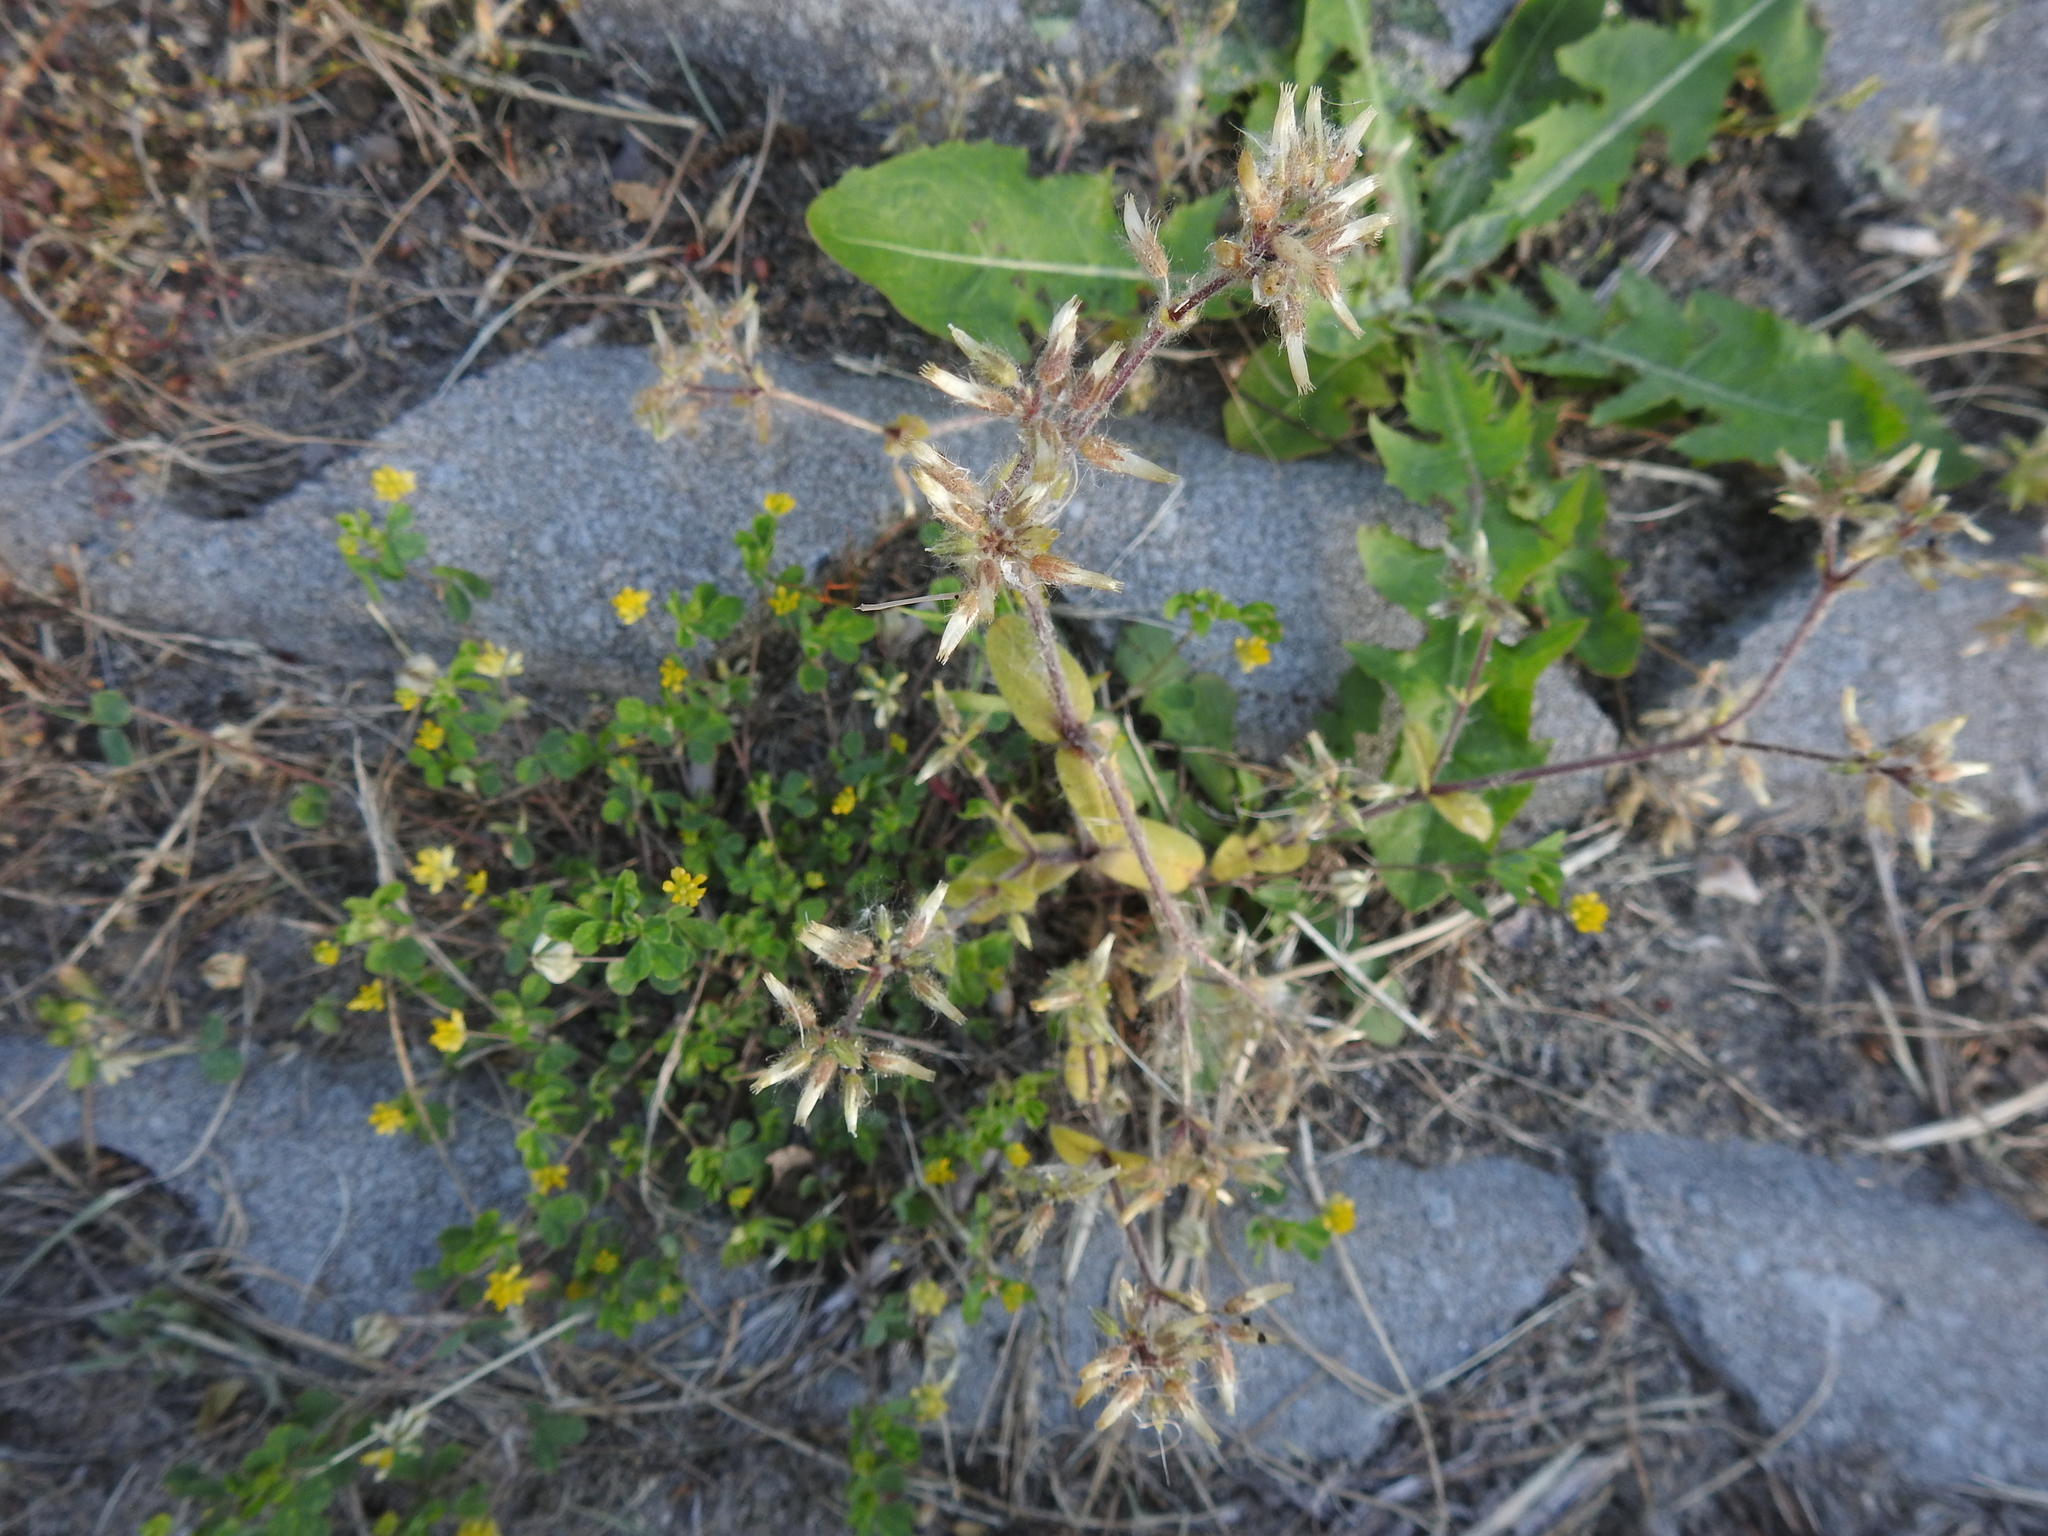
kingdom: Plantae
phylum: Tracheophyta
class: Magnoliopsida
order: Caryophyllales
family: Caryophyllaceae
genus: Cerastium
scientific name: Cerastium glomeratum
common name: Sticky chickweed
